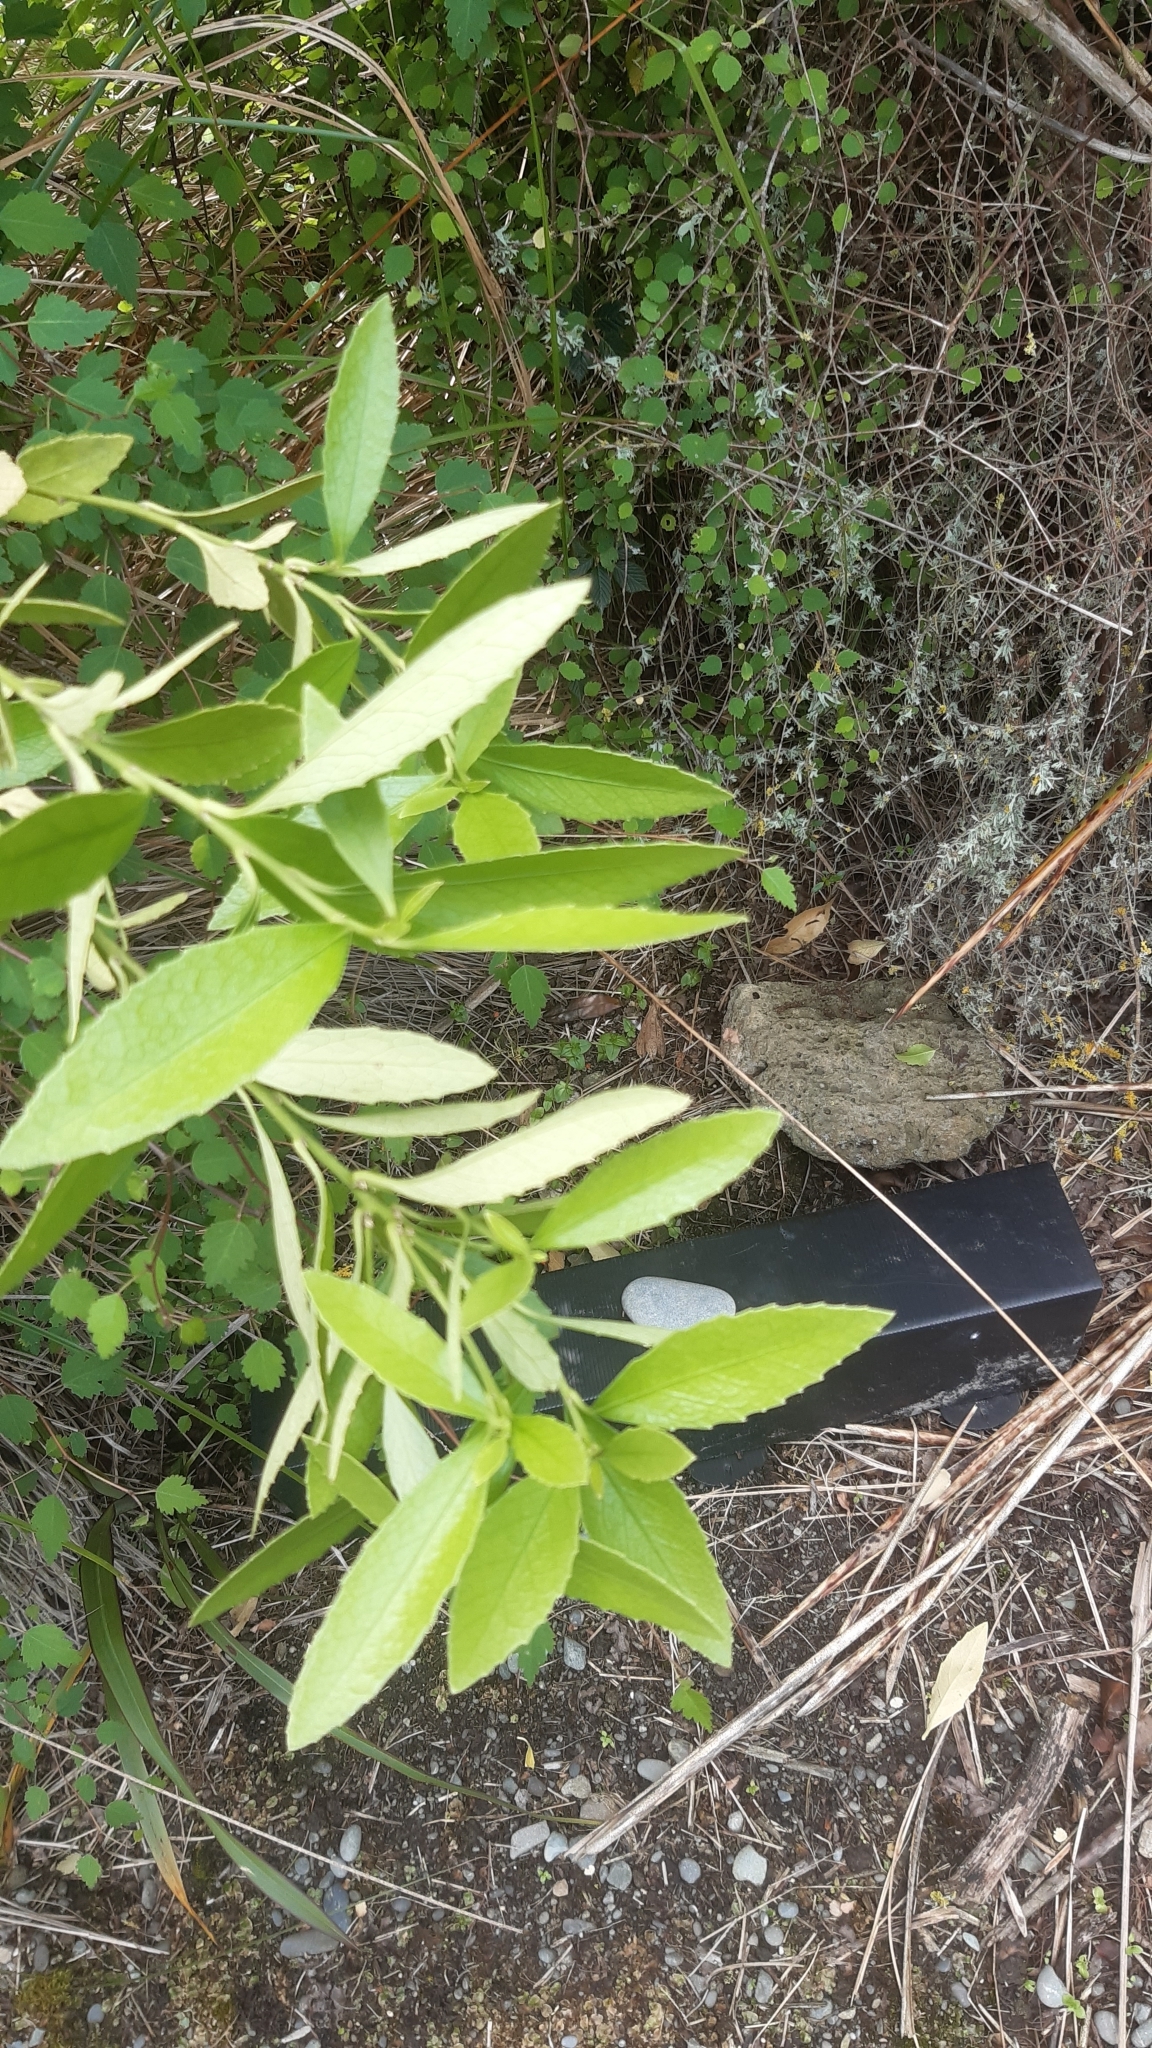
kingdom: Plantae
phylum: Tracheophyta
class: Magnoliopsida
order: Malpighiales
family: Violaceae
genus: Melicytus
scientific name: Melicytus chathamicus
